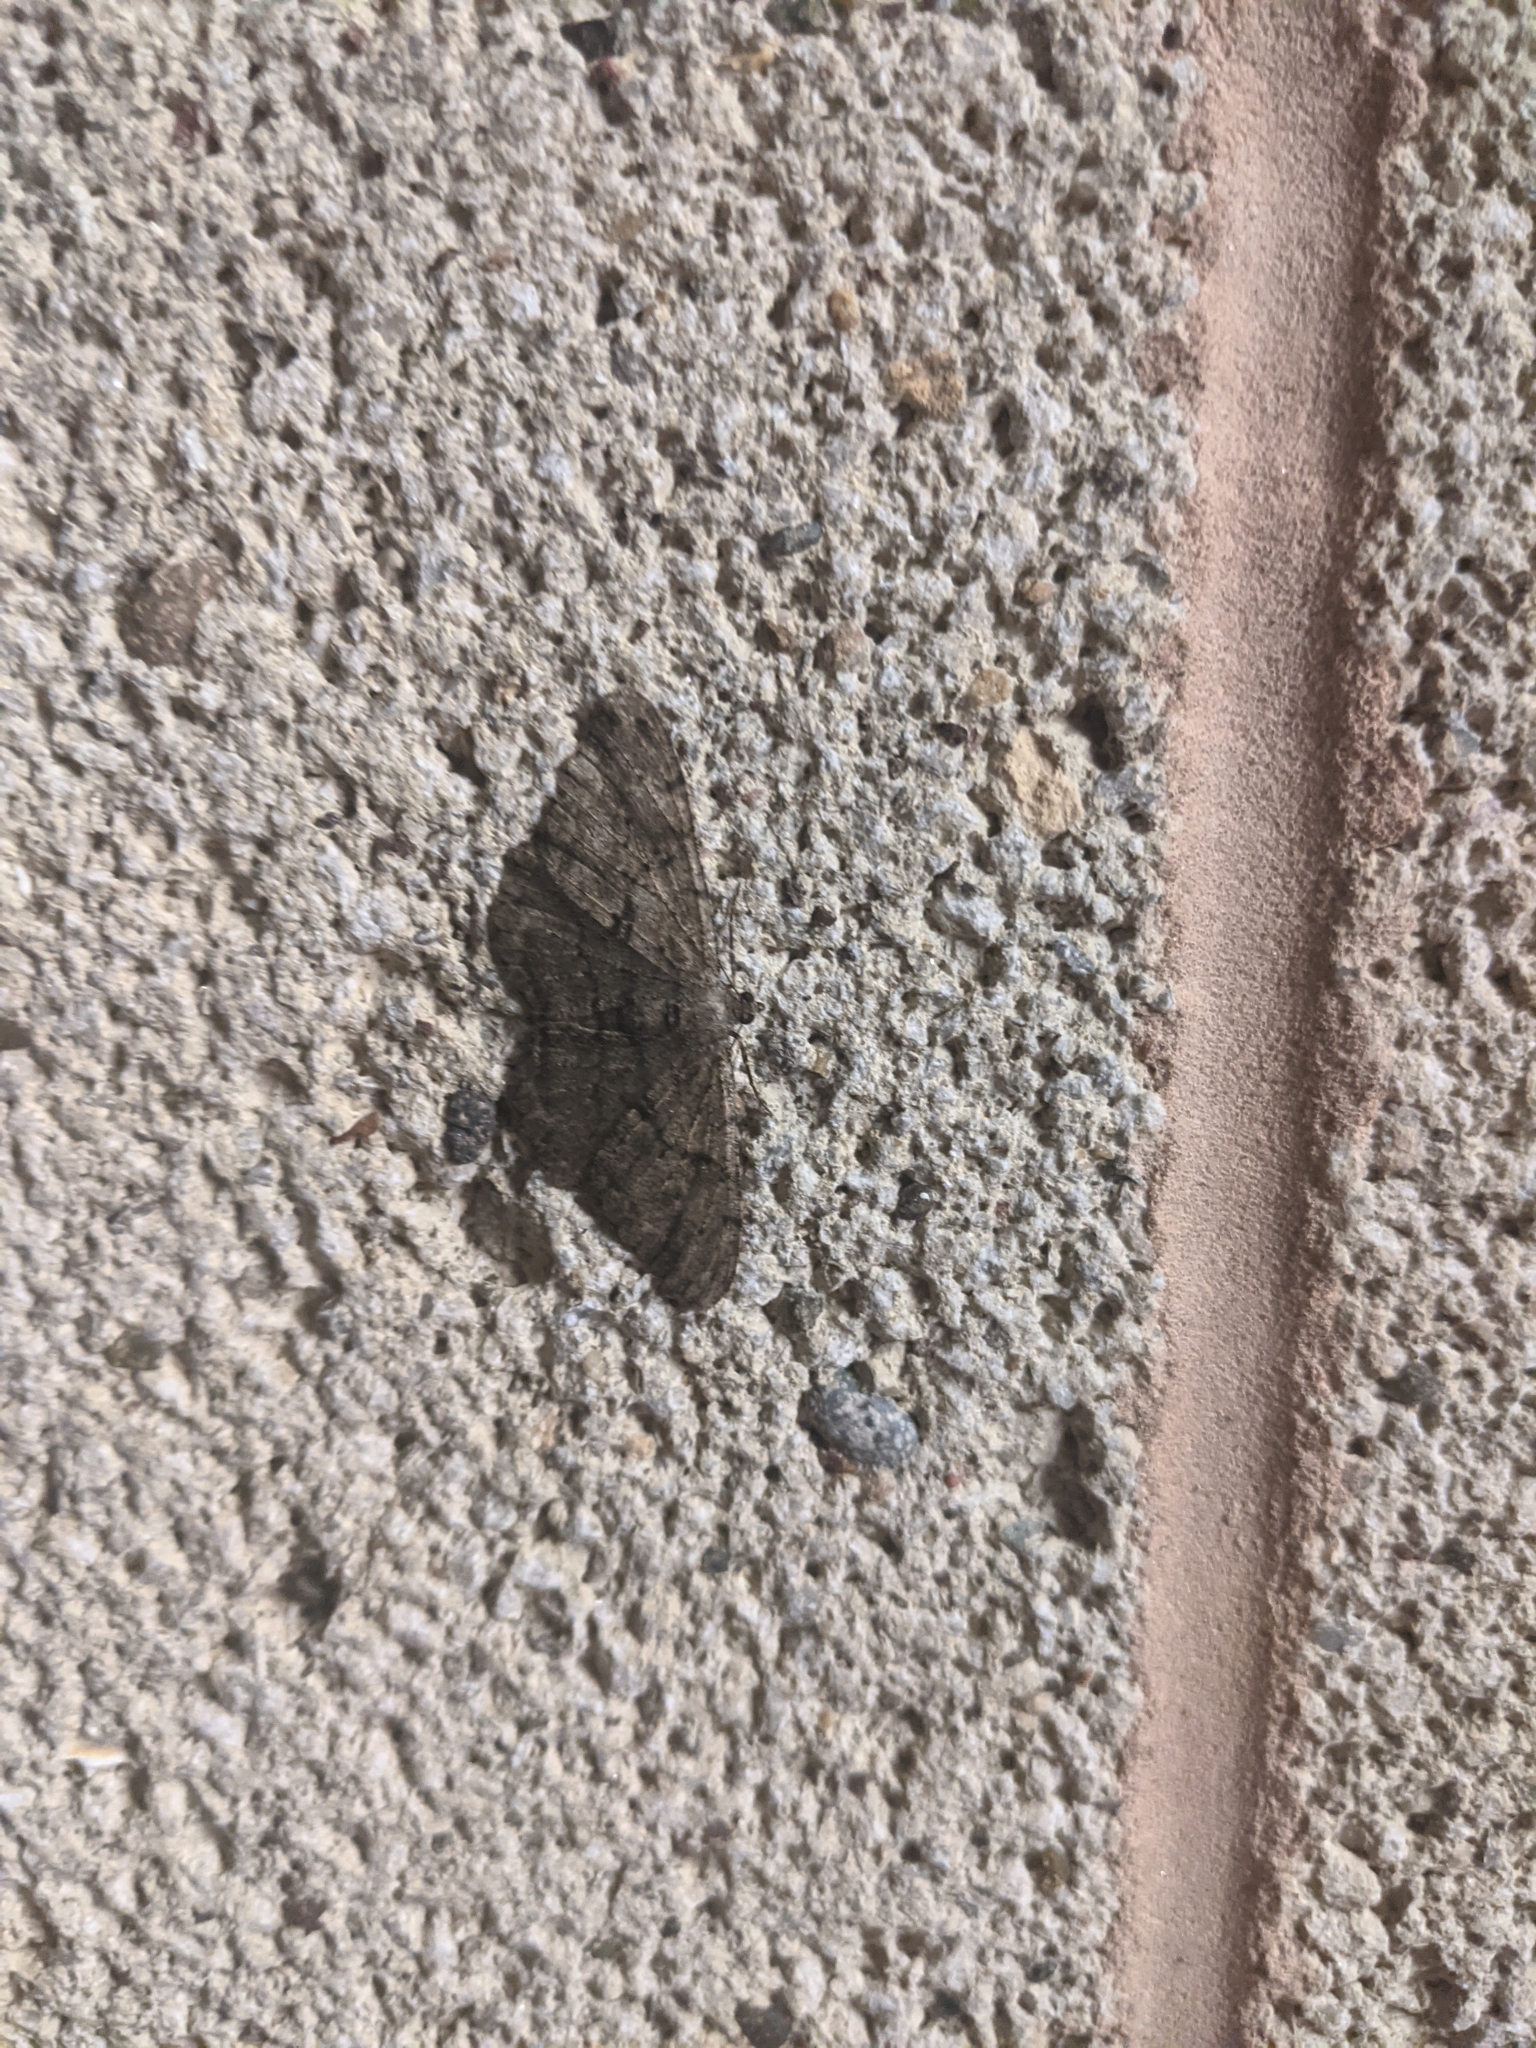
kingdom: Animalia
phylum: Arthropoda
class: Insecta
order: Lepidoptera
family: Geometridae
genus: Peribatodes
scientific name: Peribatodes rhomboidaria
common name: Willow beauty
